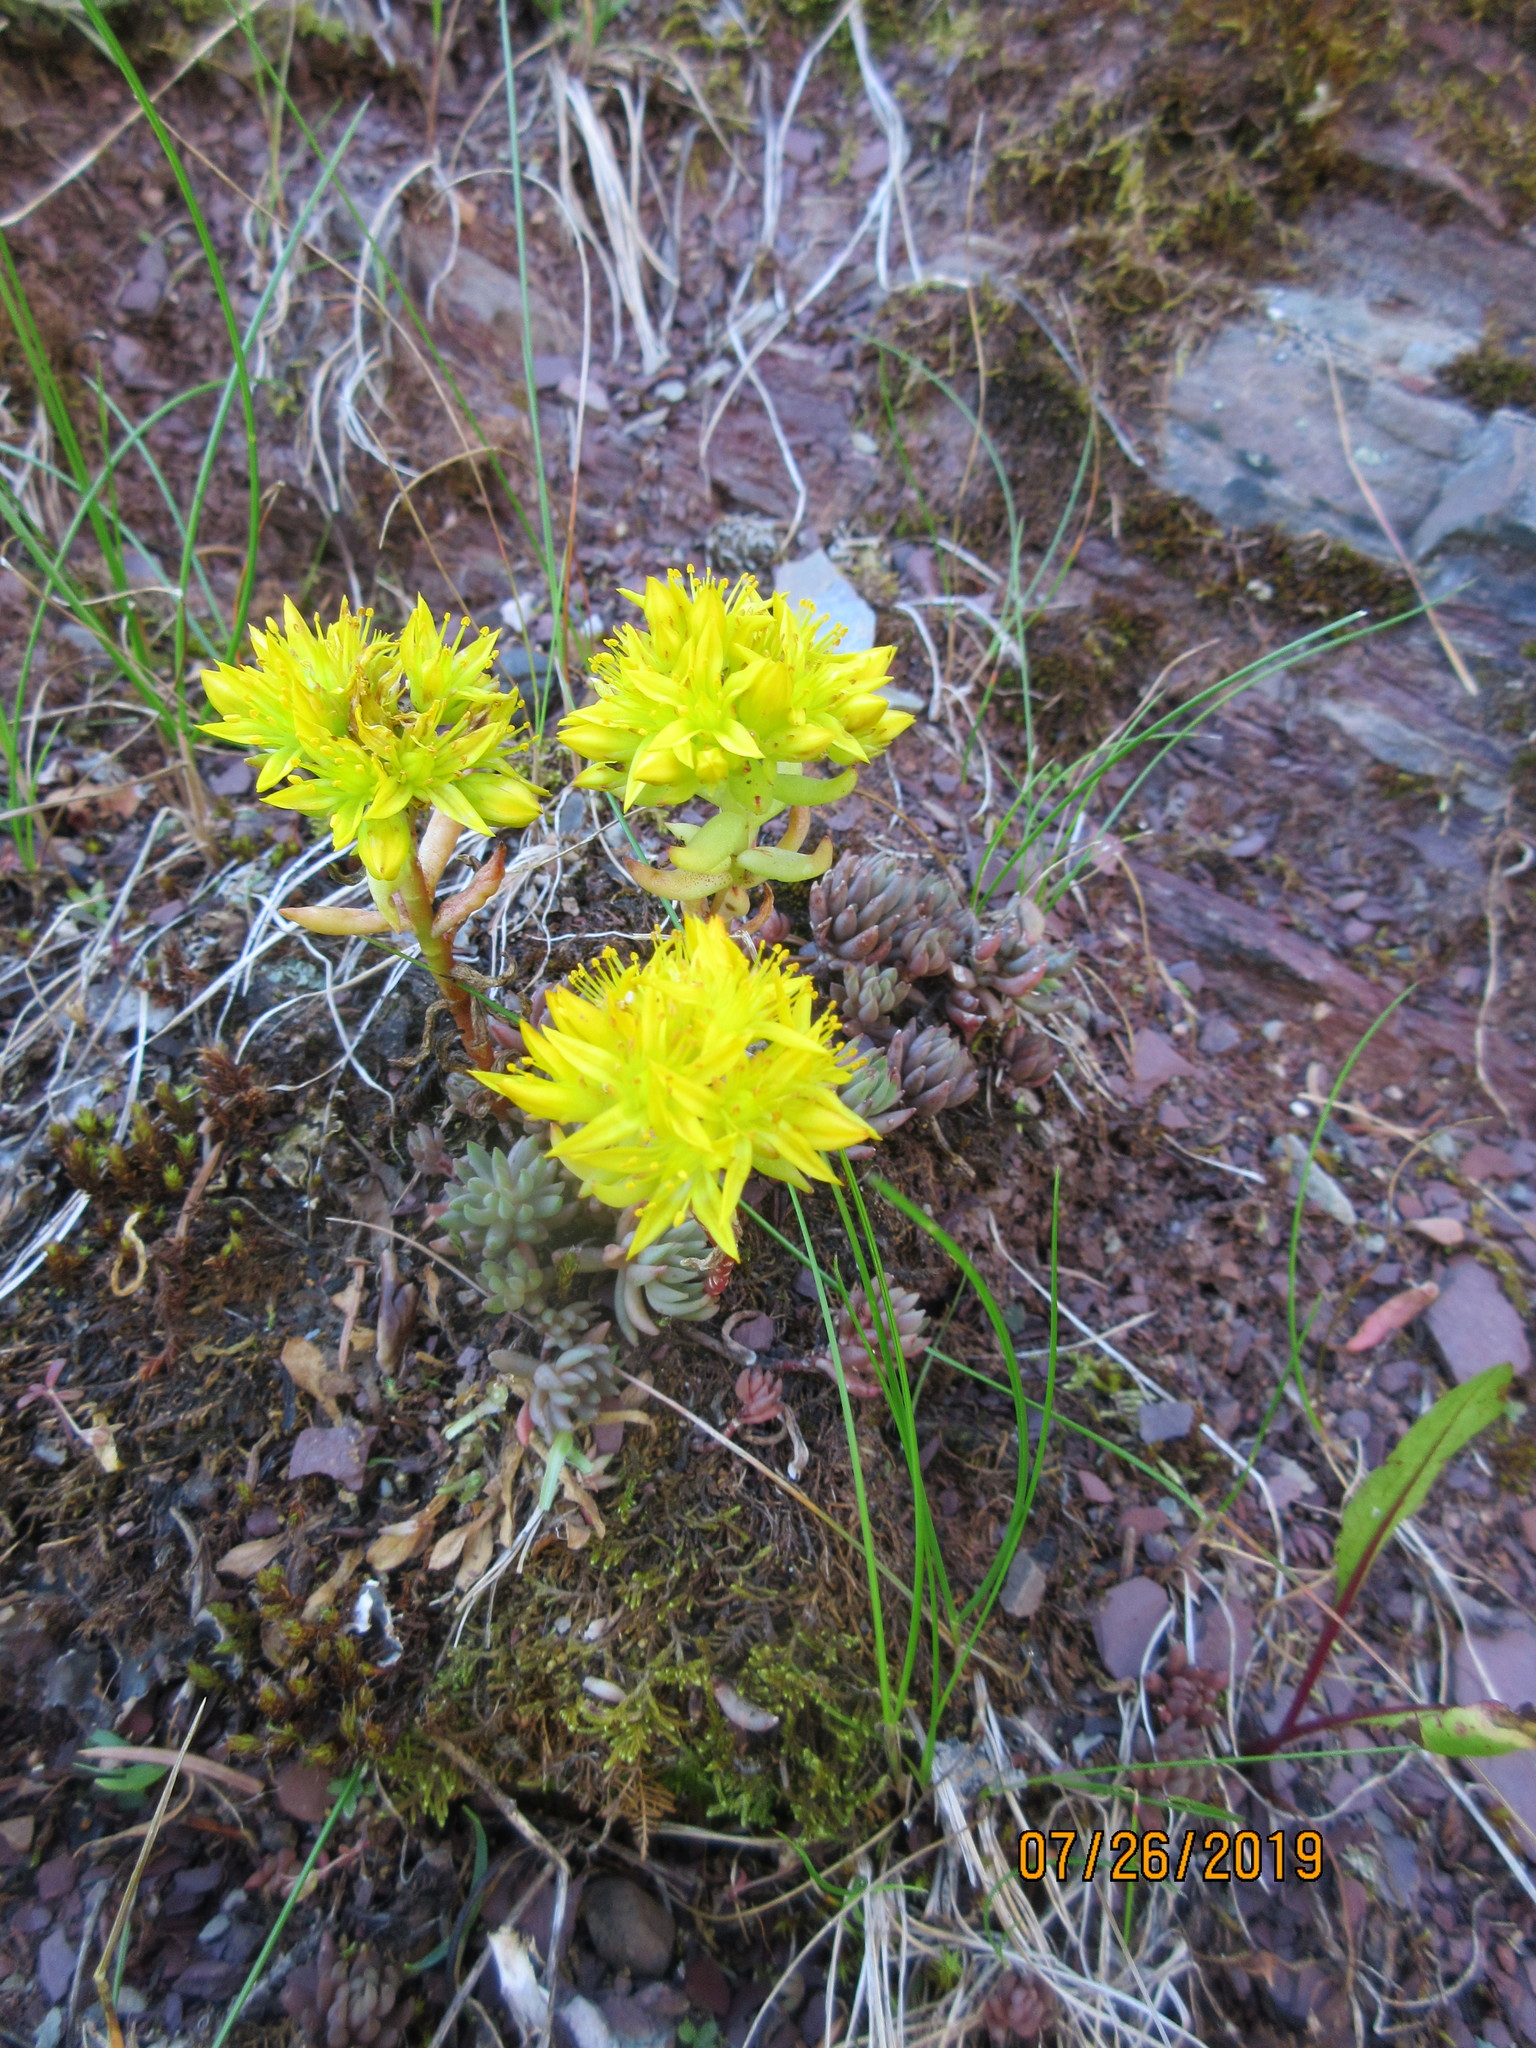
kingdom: Plantae
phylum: Tracheophyta
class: Magnoliopsida
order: Saxifragales
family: Crassulaceae
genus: Sedum
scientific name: Sedum lanceolatum
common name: Common stonecrop
